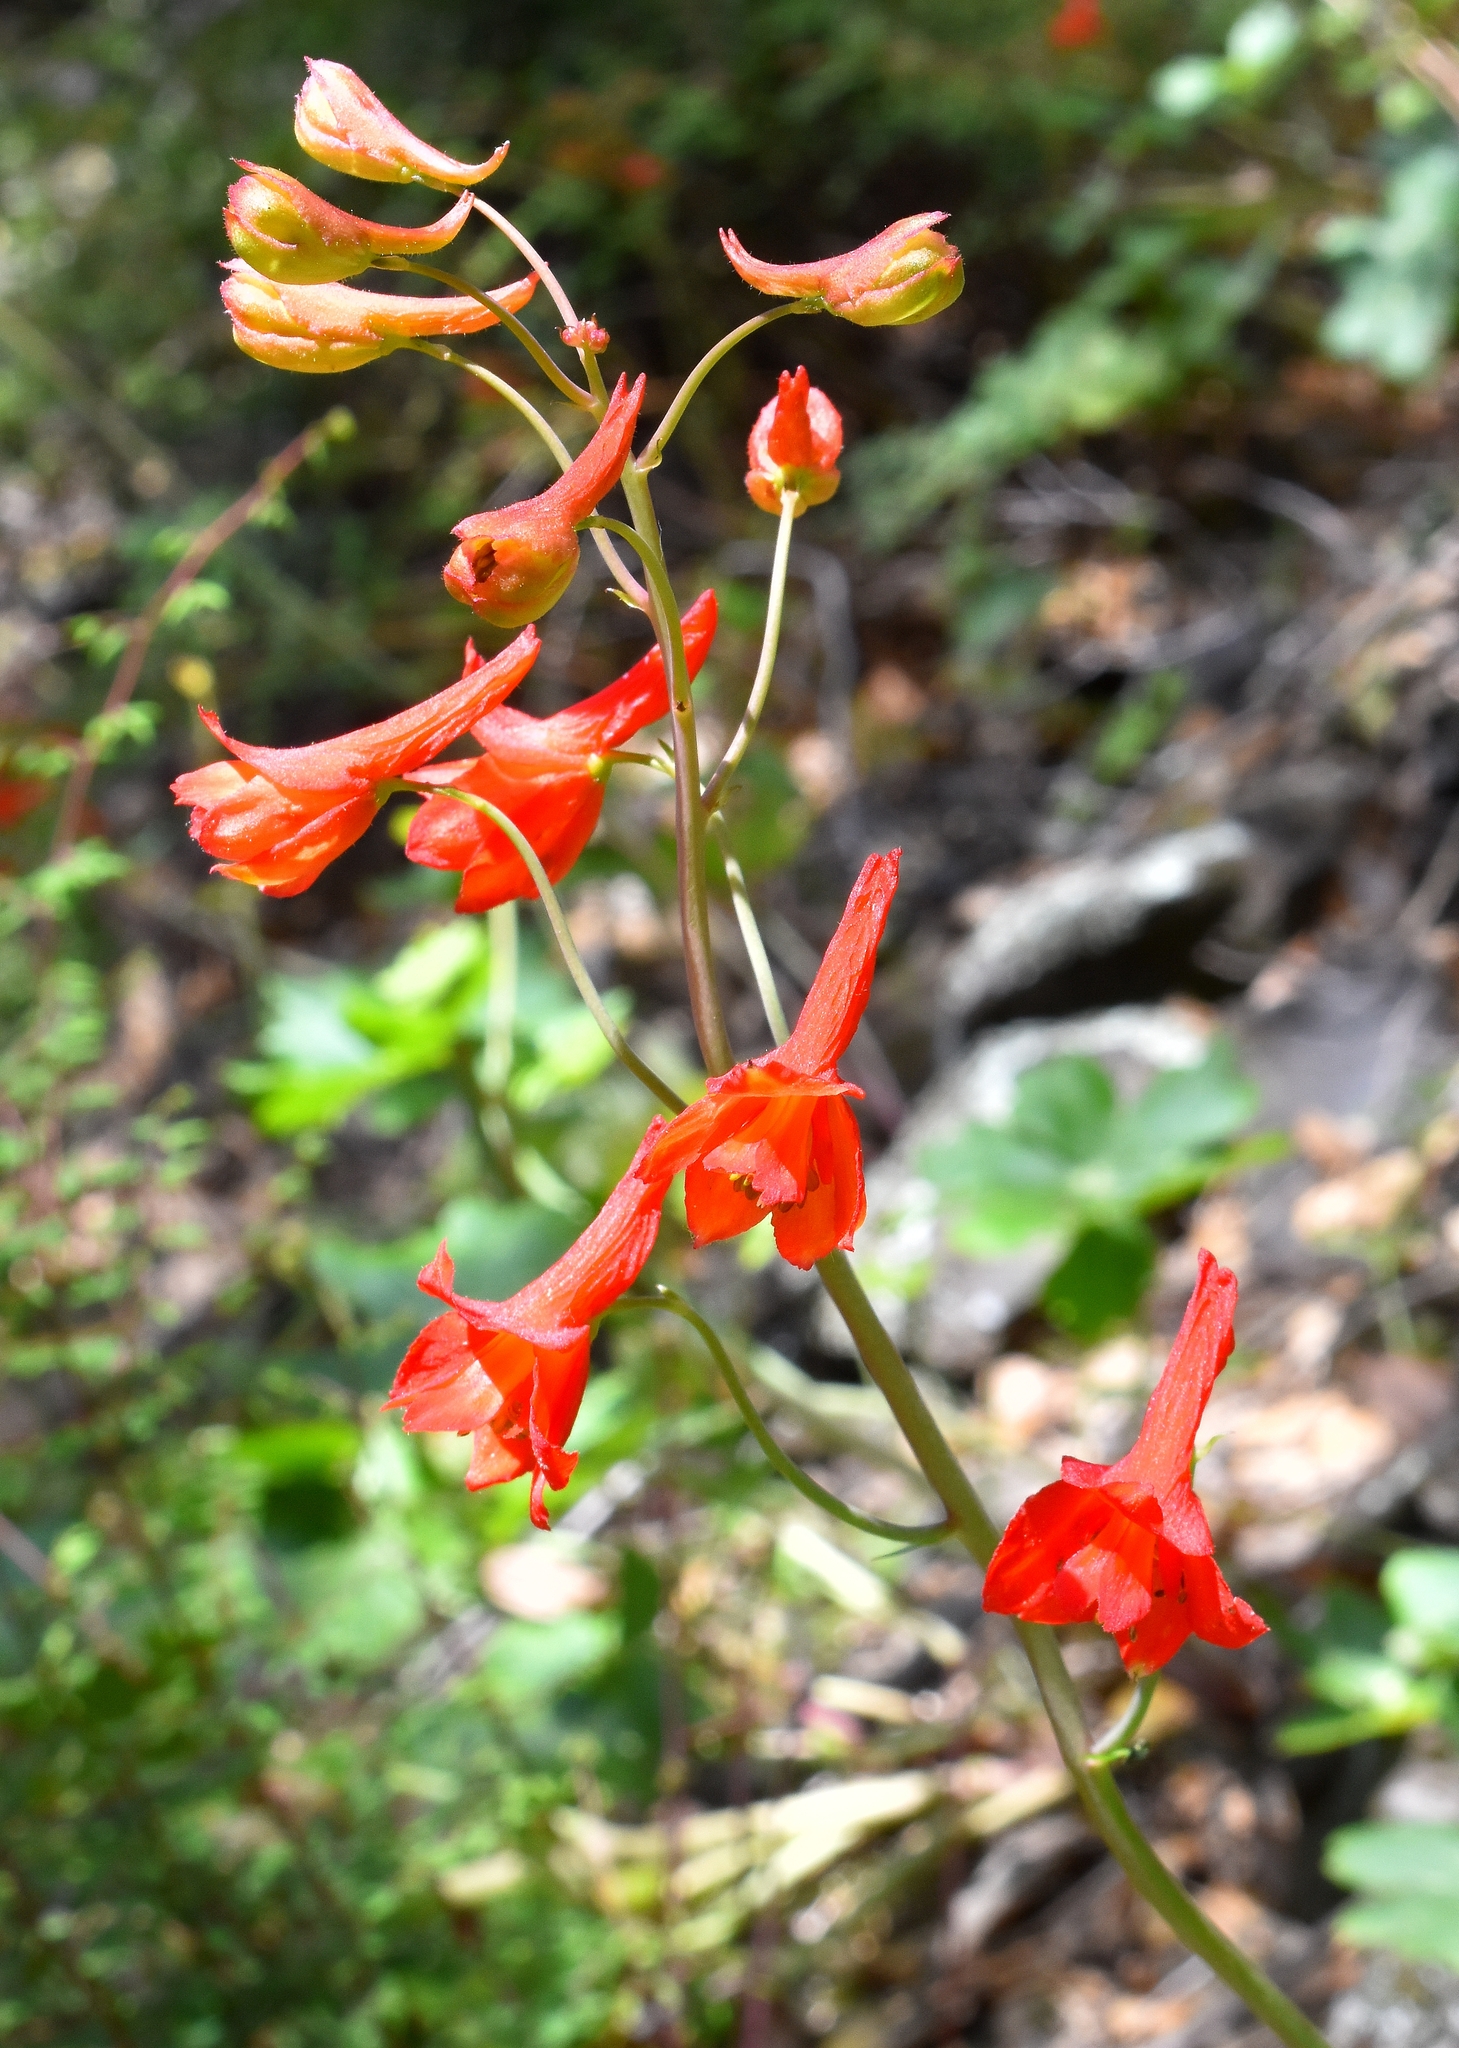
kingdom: Plantae
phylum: Tracheophyta
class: Magnoliopsida
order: Ranunculales
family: Ranunculaceae
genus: Delphinium
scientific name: Delphinium nudicaule
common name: Red larkspur
